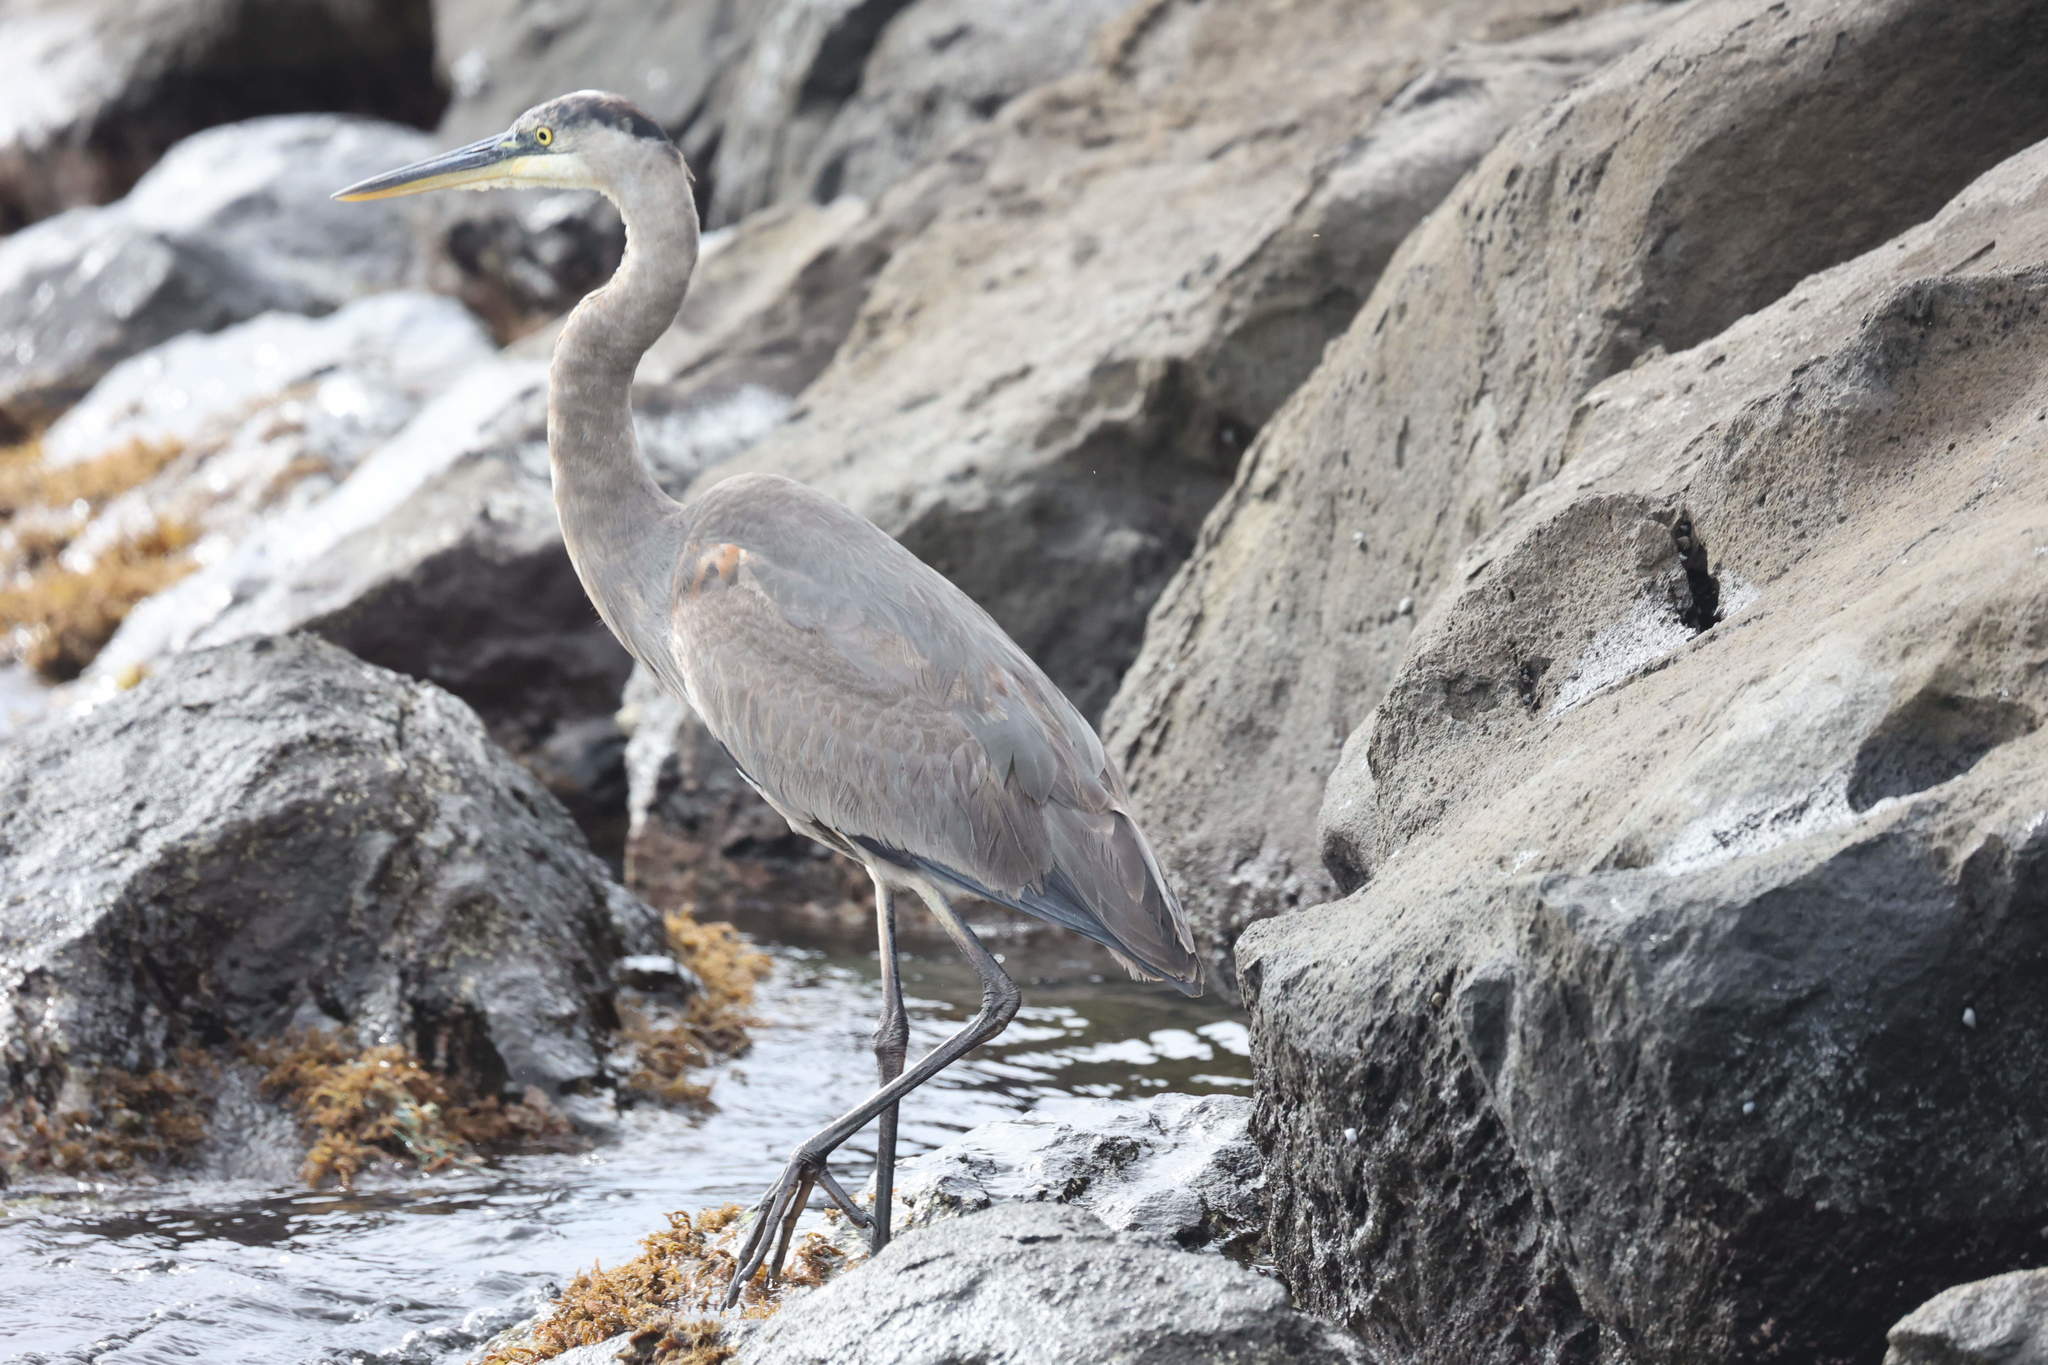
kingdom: Animalia
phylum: Chordata
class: Aves
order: Pelecaniformes
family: Ardeidae
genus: Ardea
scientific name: Ardea herodias
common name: Great blue heron
